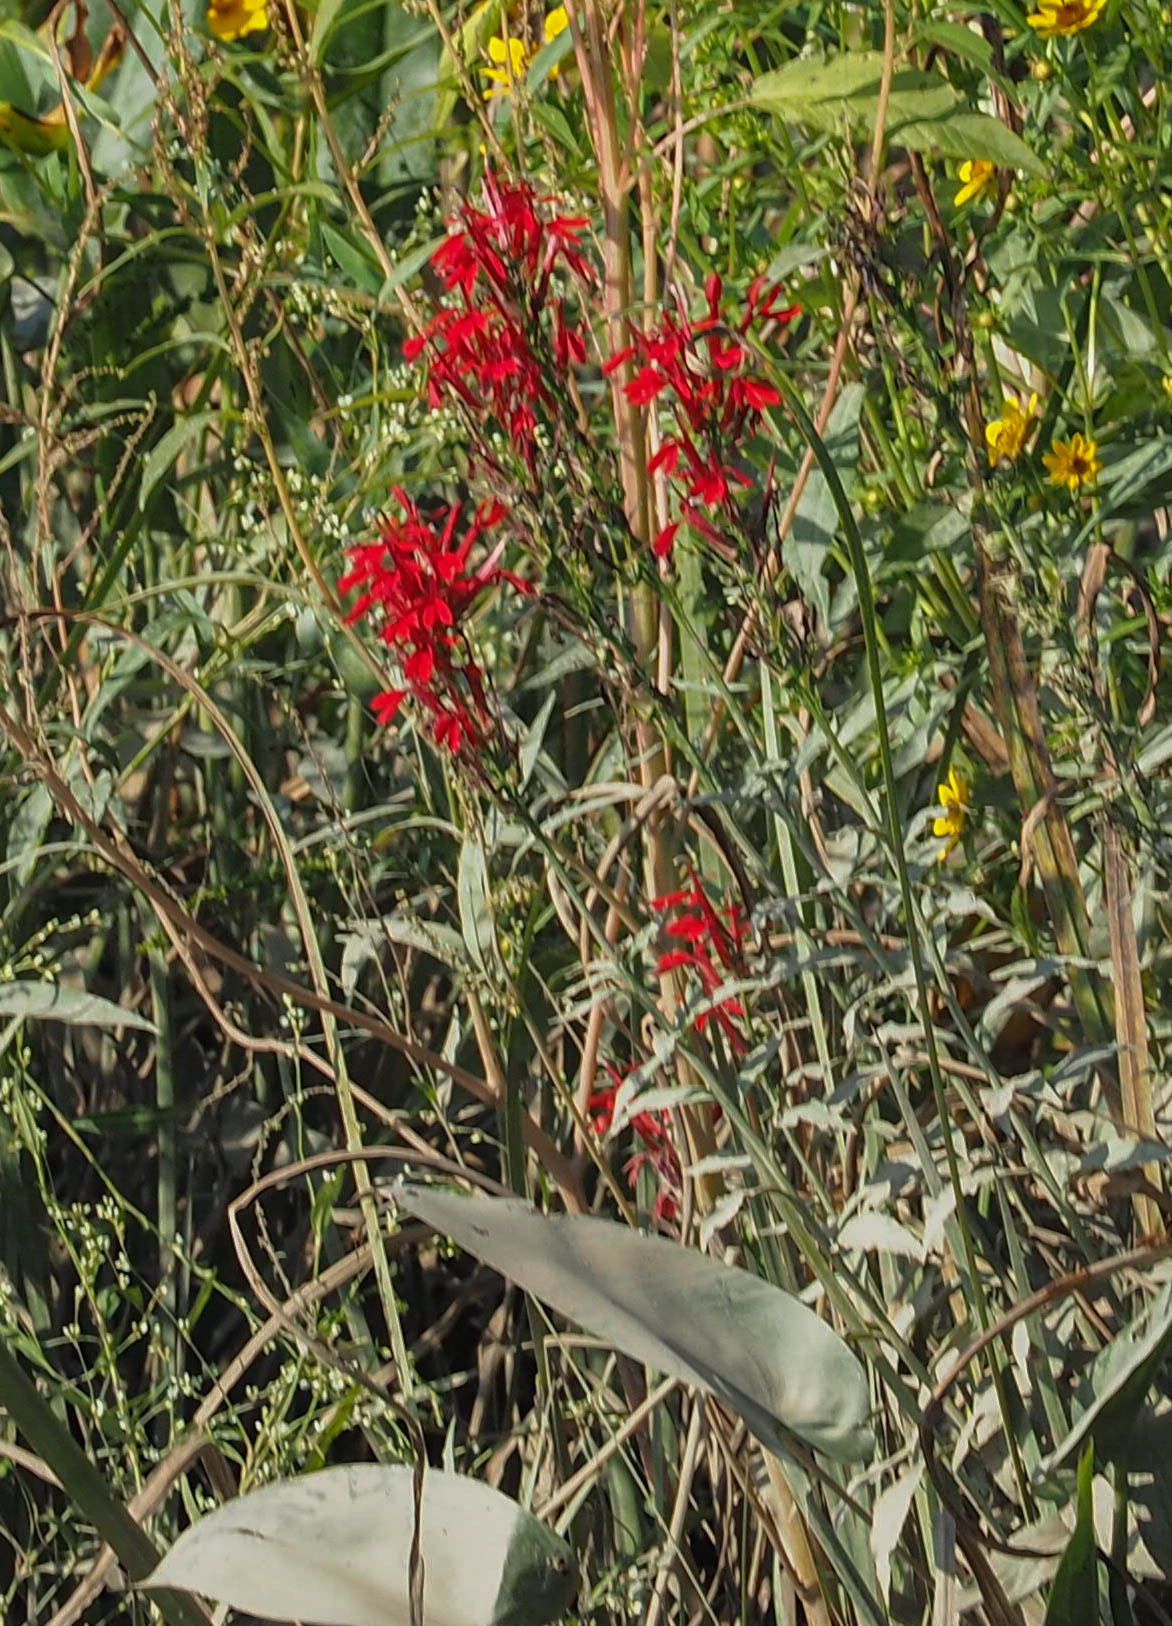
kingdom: Plantae
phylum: Tracheophyta
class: Magnoliopsida
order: Asterales
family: Campanulaceae
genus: Lobelia
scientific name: Lobelia cardinalis
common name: Cardinal flower
